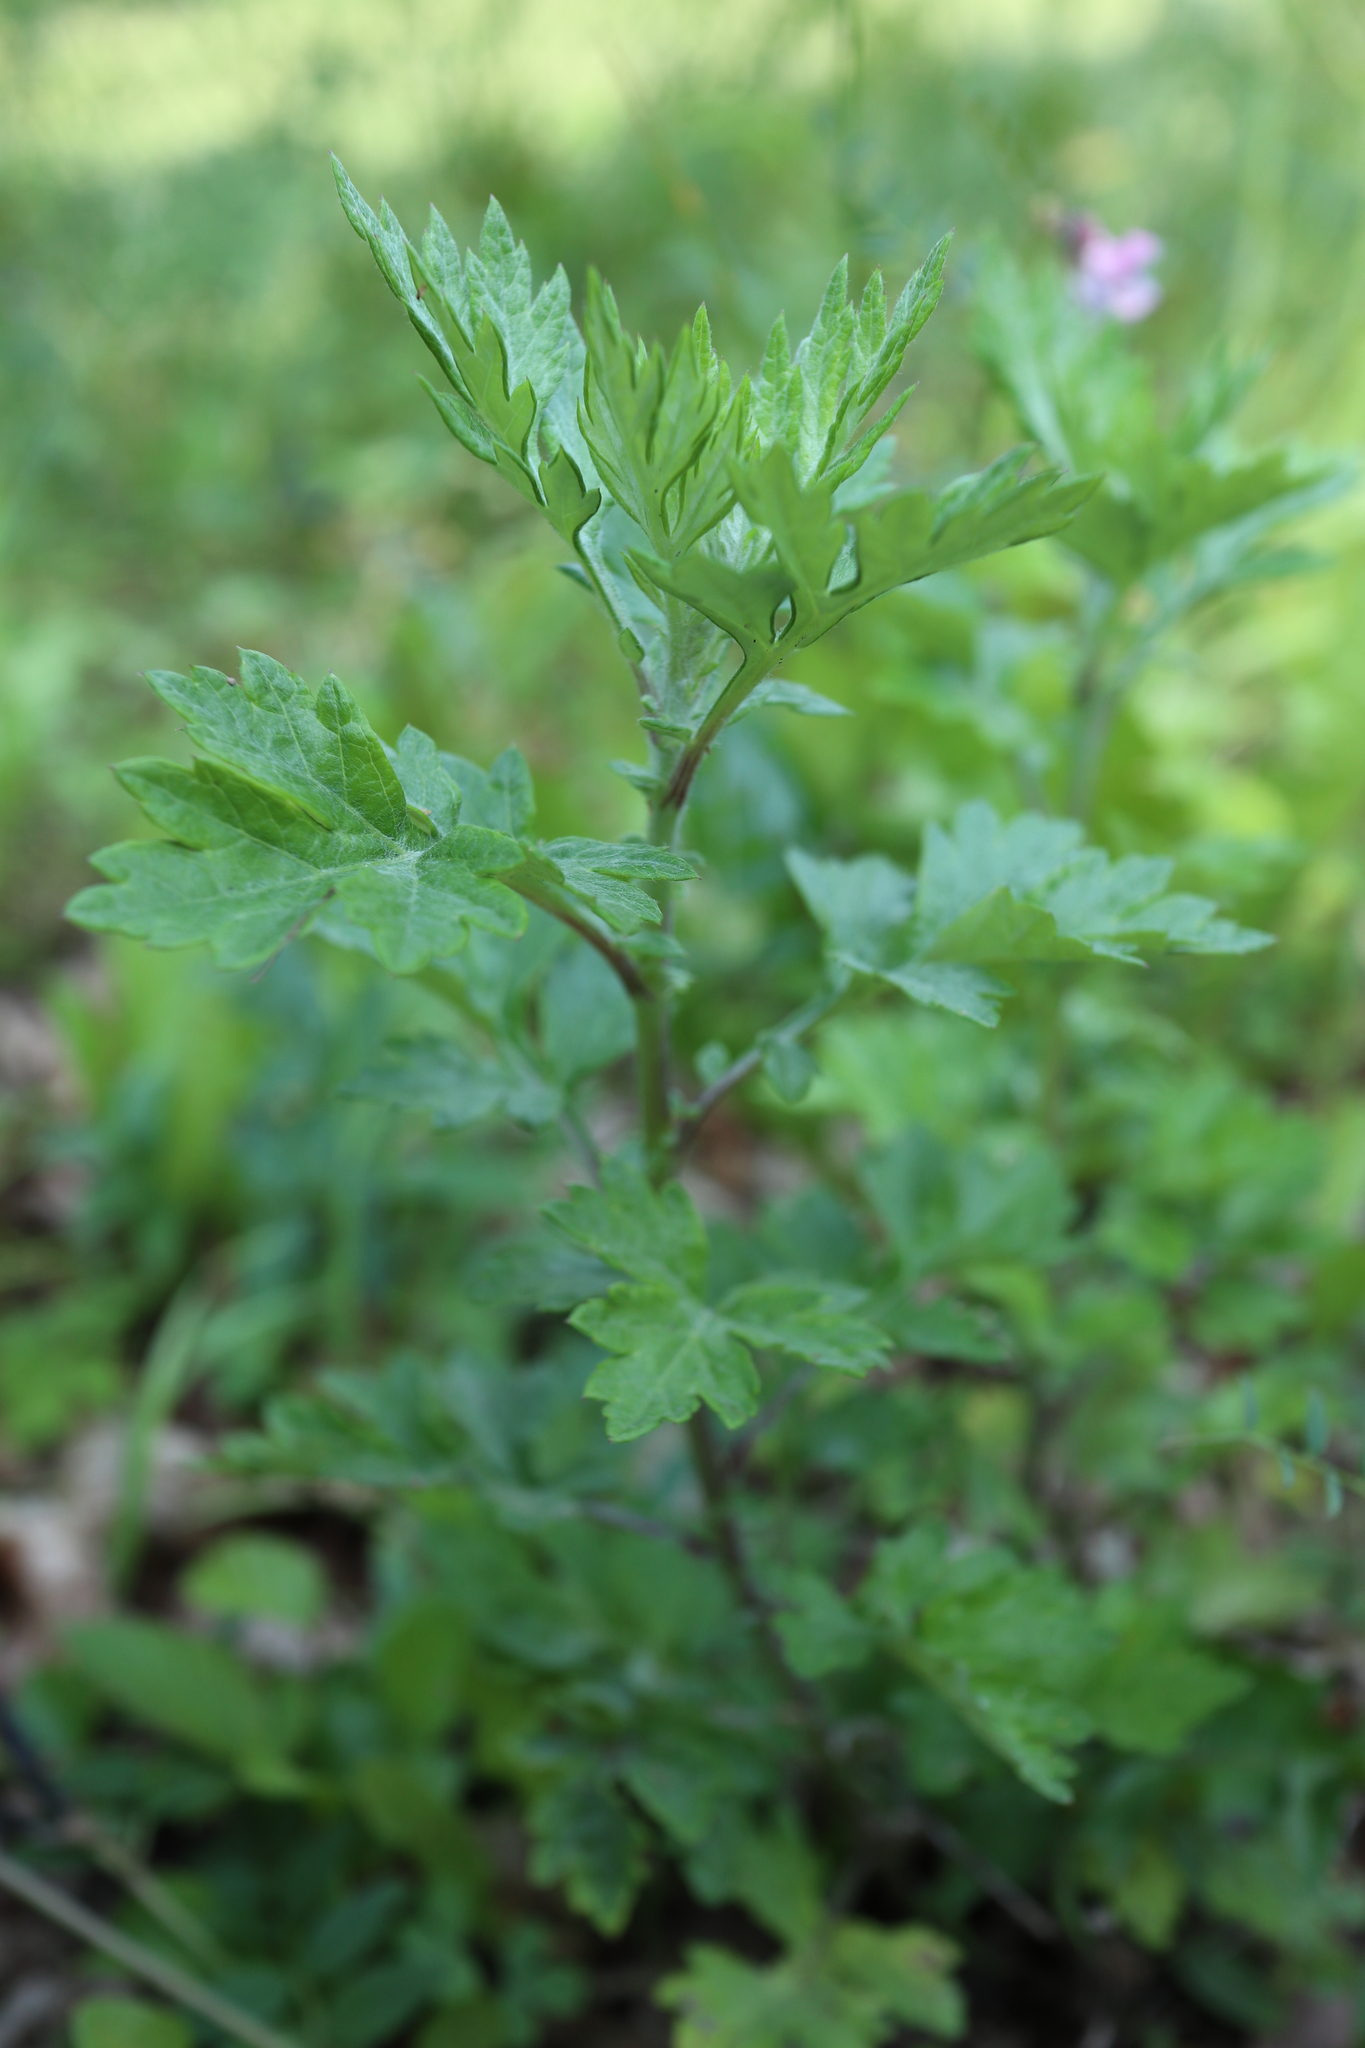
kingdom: Plantae
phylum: Tracheophyta
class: Magnoliopsida
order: Asterales
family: Asteraceae
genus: Artemisia
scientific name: Artemisia vulgaris
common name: Mugwort
